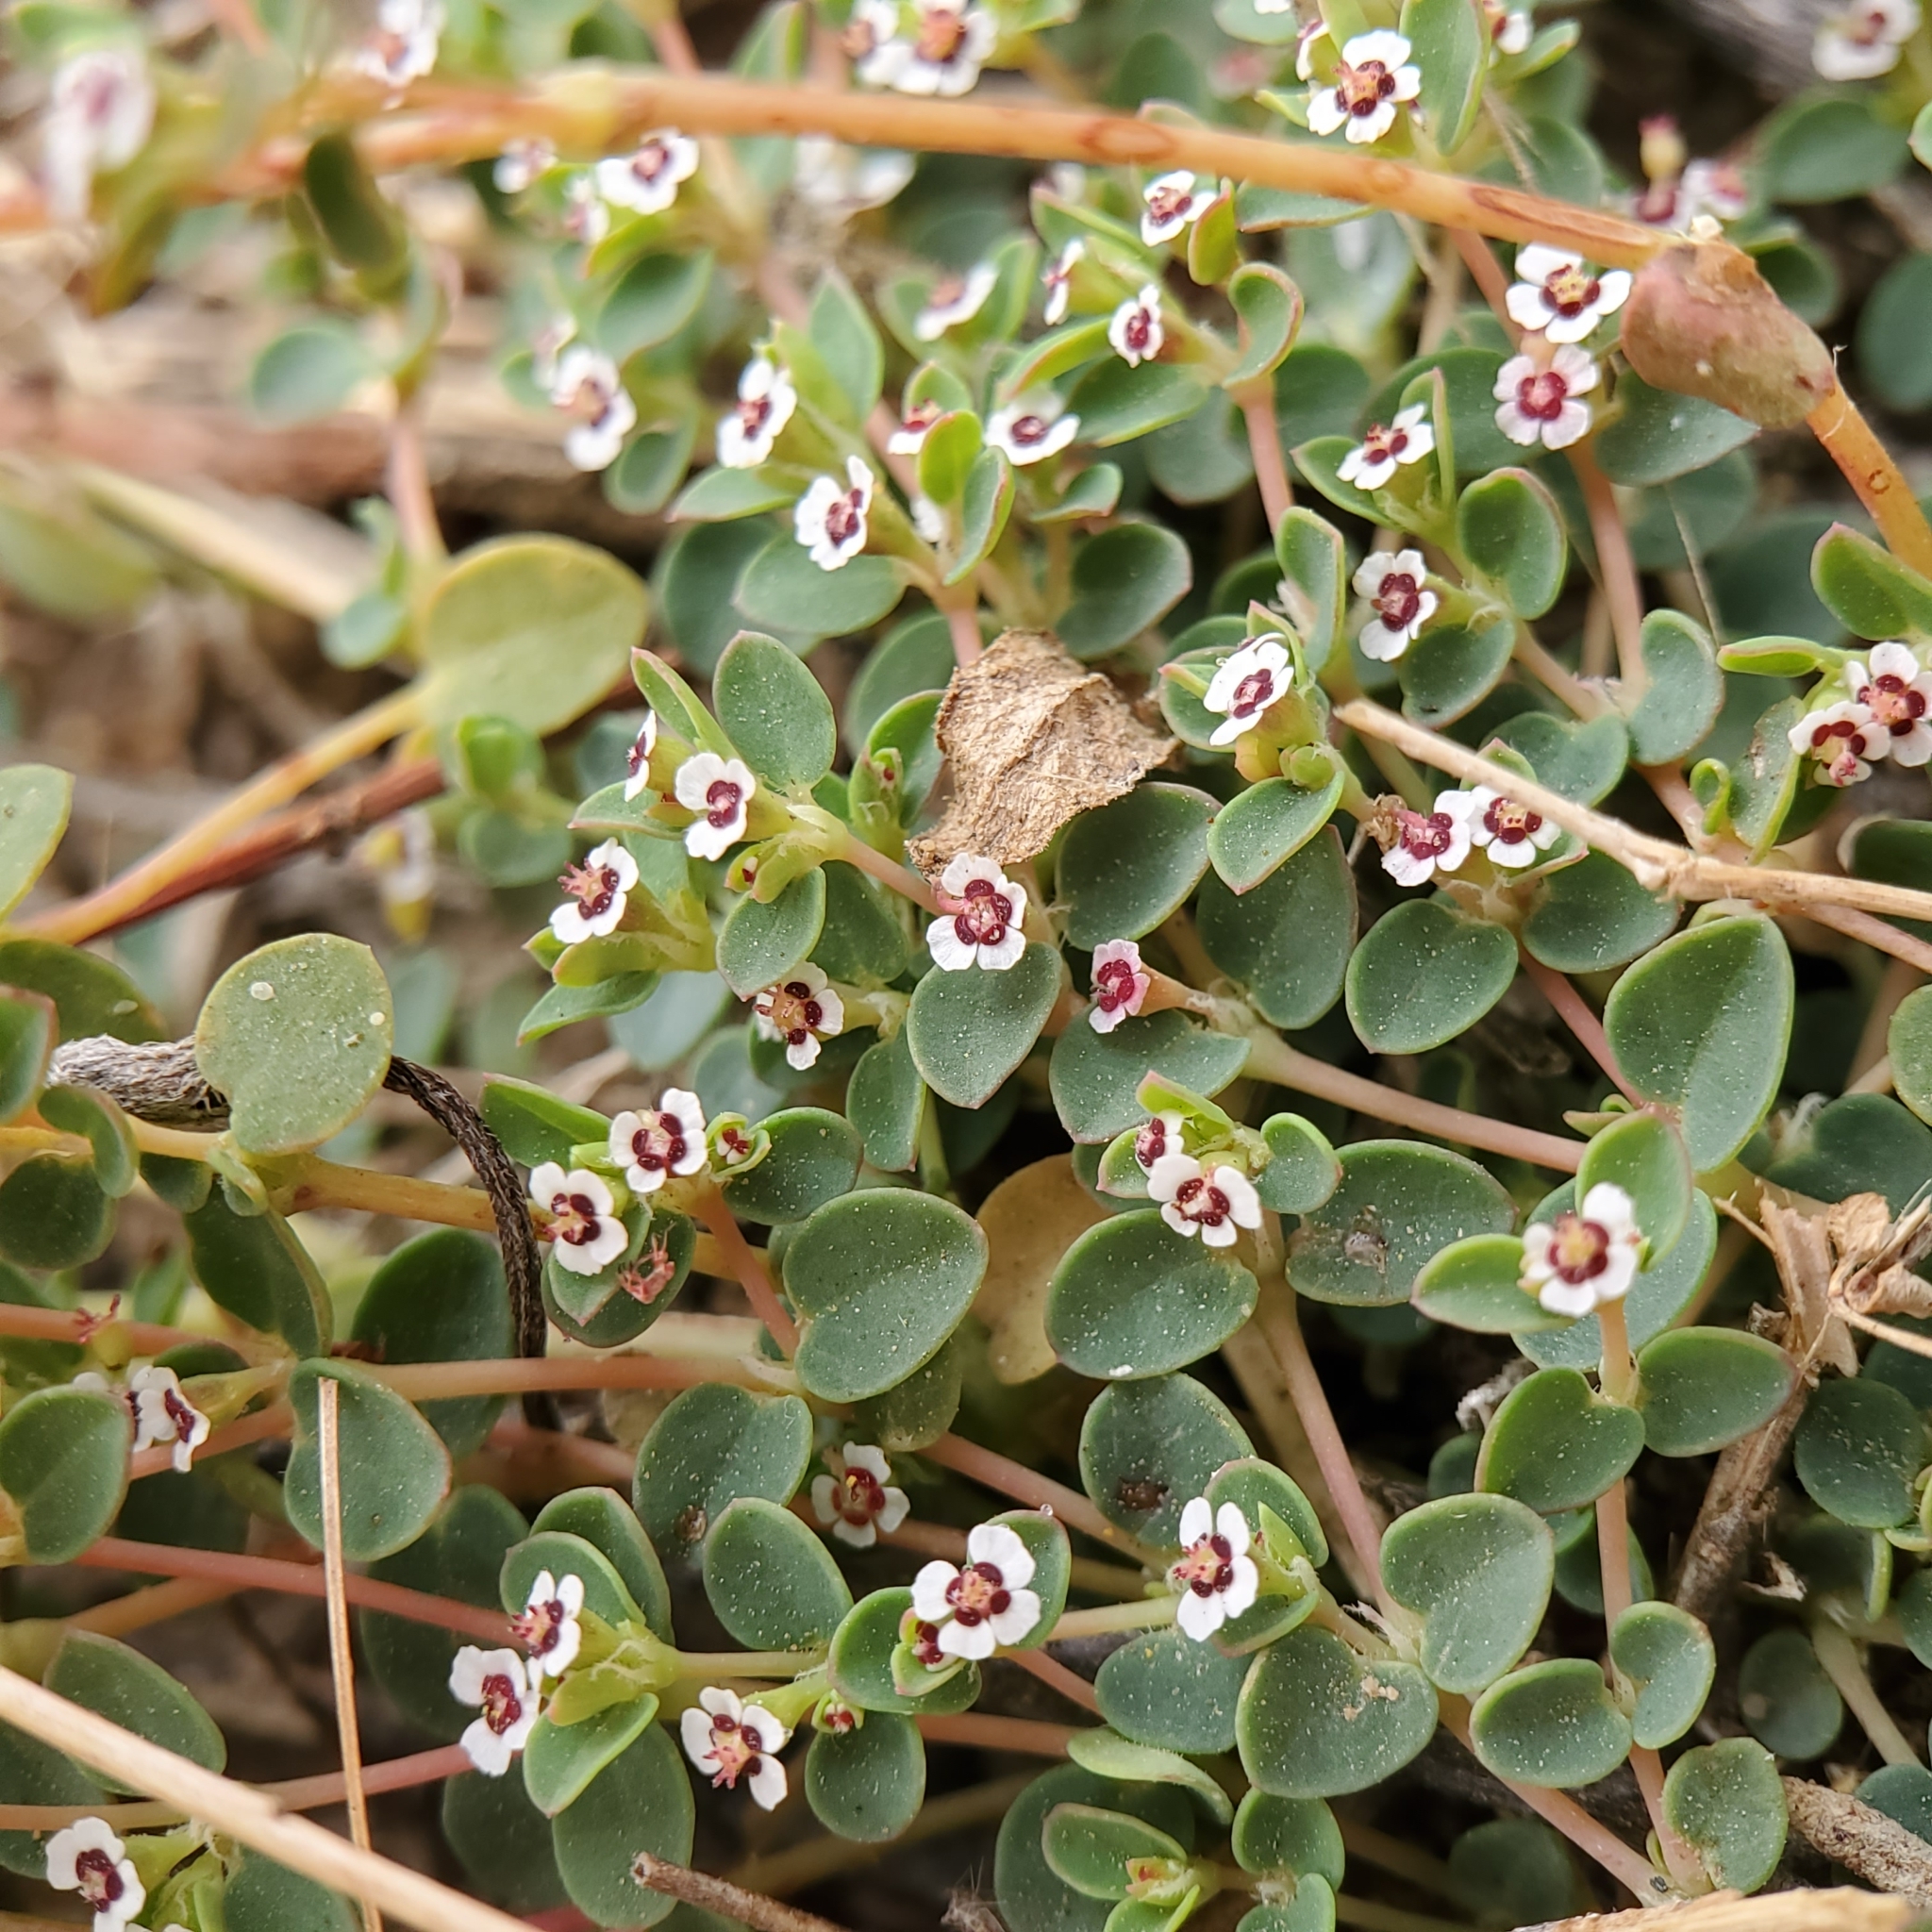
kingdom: Plantae
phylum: Tracheophyta
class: Magnoliopsida
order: Malpighiales
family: Euphorbiaceae
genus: Euphorbia
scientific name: Euphorbia polycarpa
